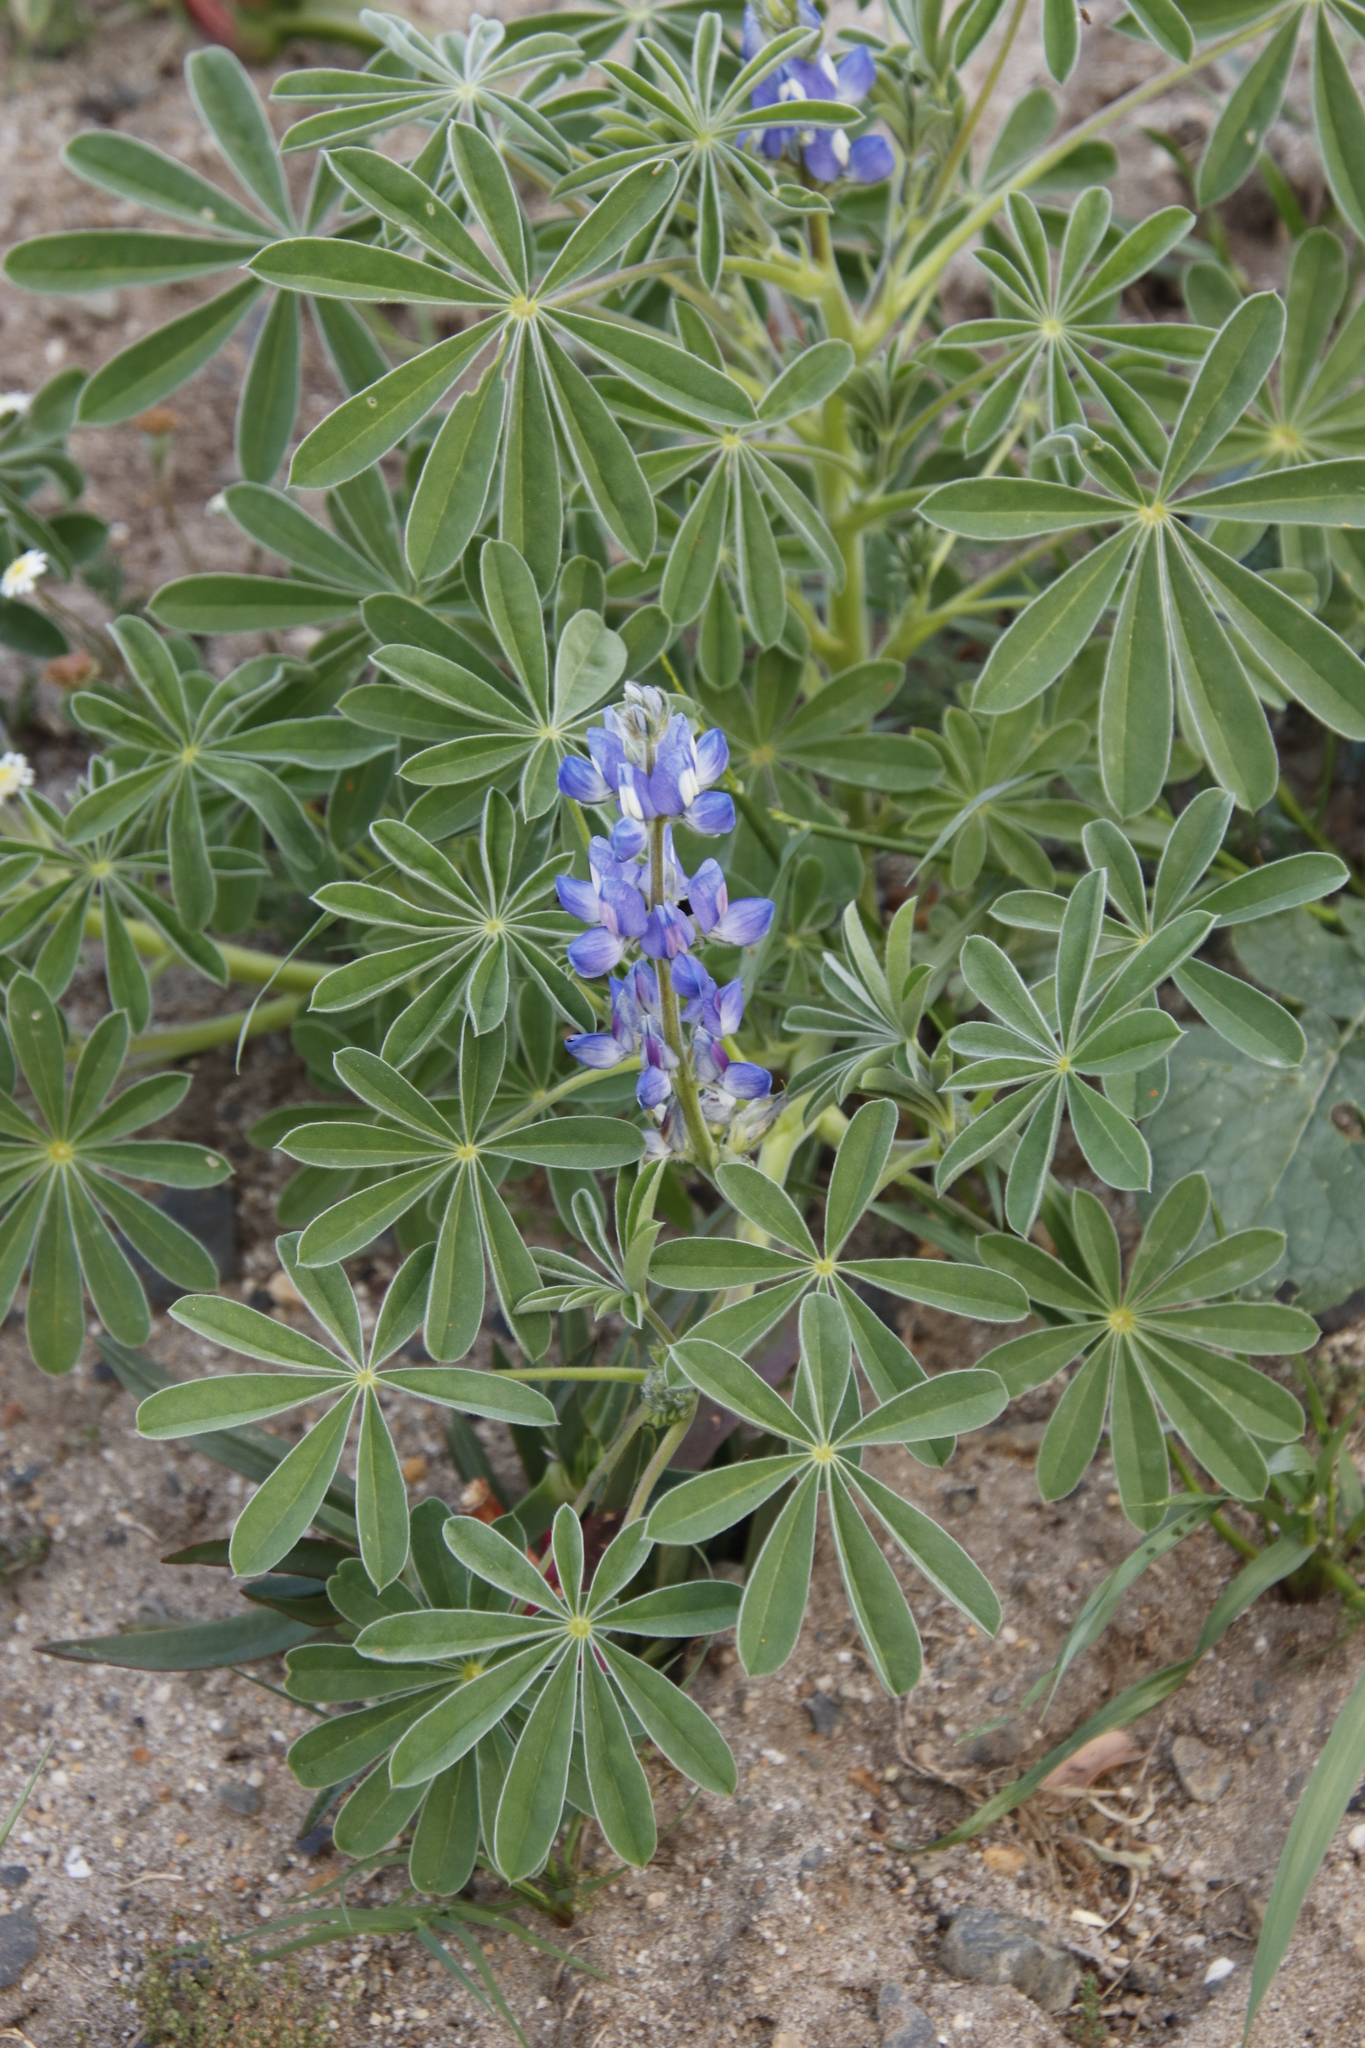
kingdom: Plantae
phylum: Tracheophyta
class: Magnoliopsida
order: Fabales
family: Fabaceae
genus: Lupinus
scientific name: Lupinus cosentinii
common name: Hairy blue lupin
